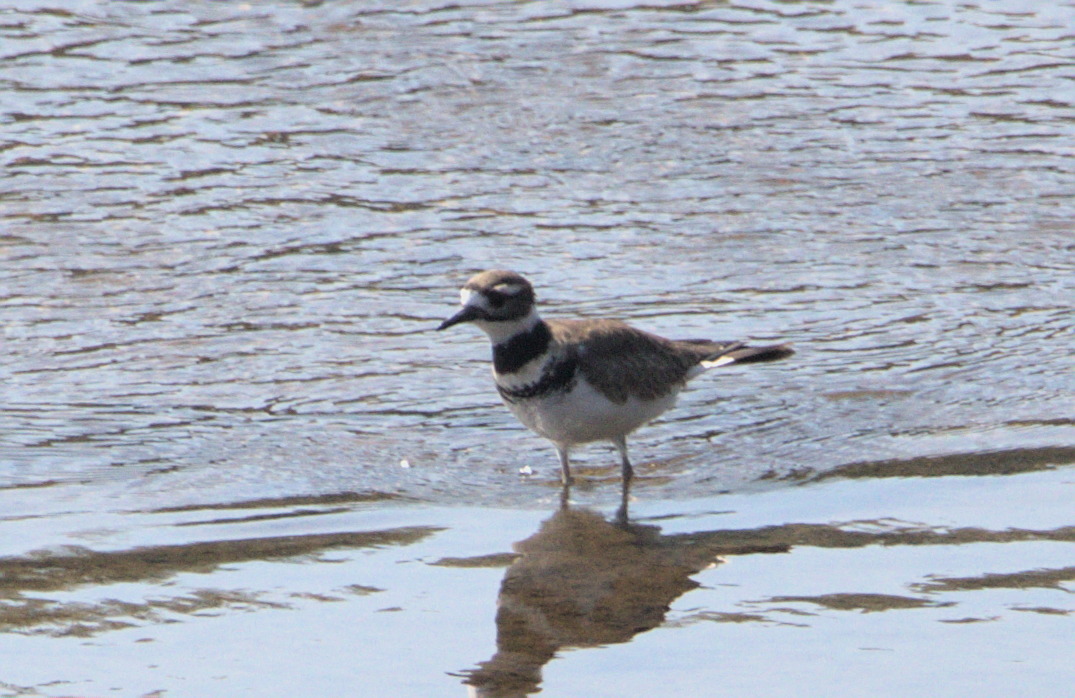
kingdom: Animalia
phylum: Chordata
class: Aves
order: Charadriiformes
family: Charadriidae
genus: Charadrius
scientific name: Charadrius vociferus
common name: Killdeer
